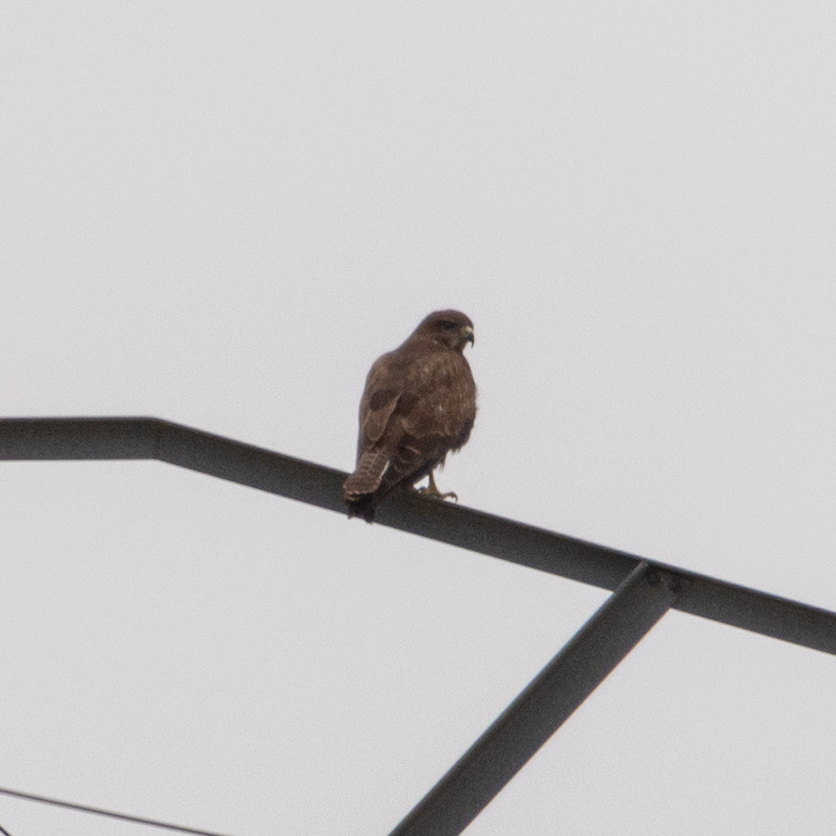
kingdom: Animalia
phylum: Chordata
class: Aves
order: Accipitriformes
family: Accipitridae
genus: Buteo
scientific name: Buteo buteo
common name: Common buzzard
